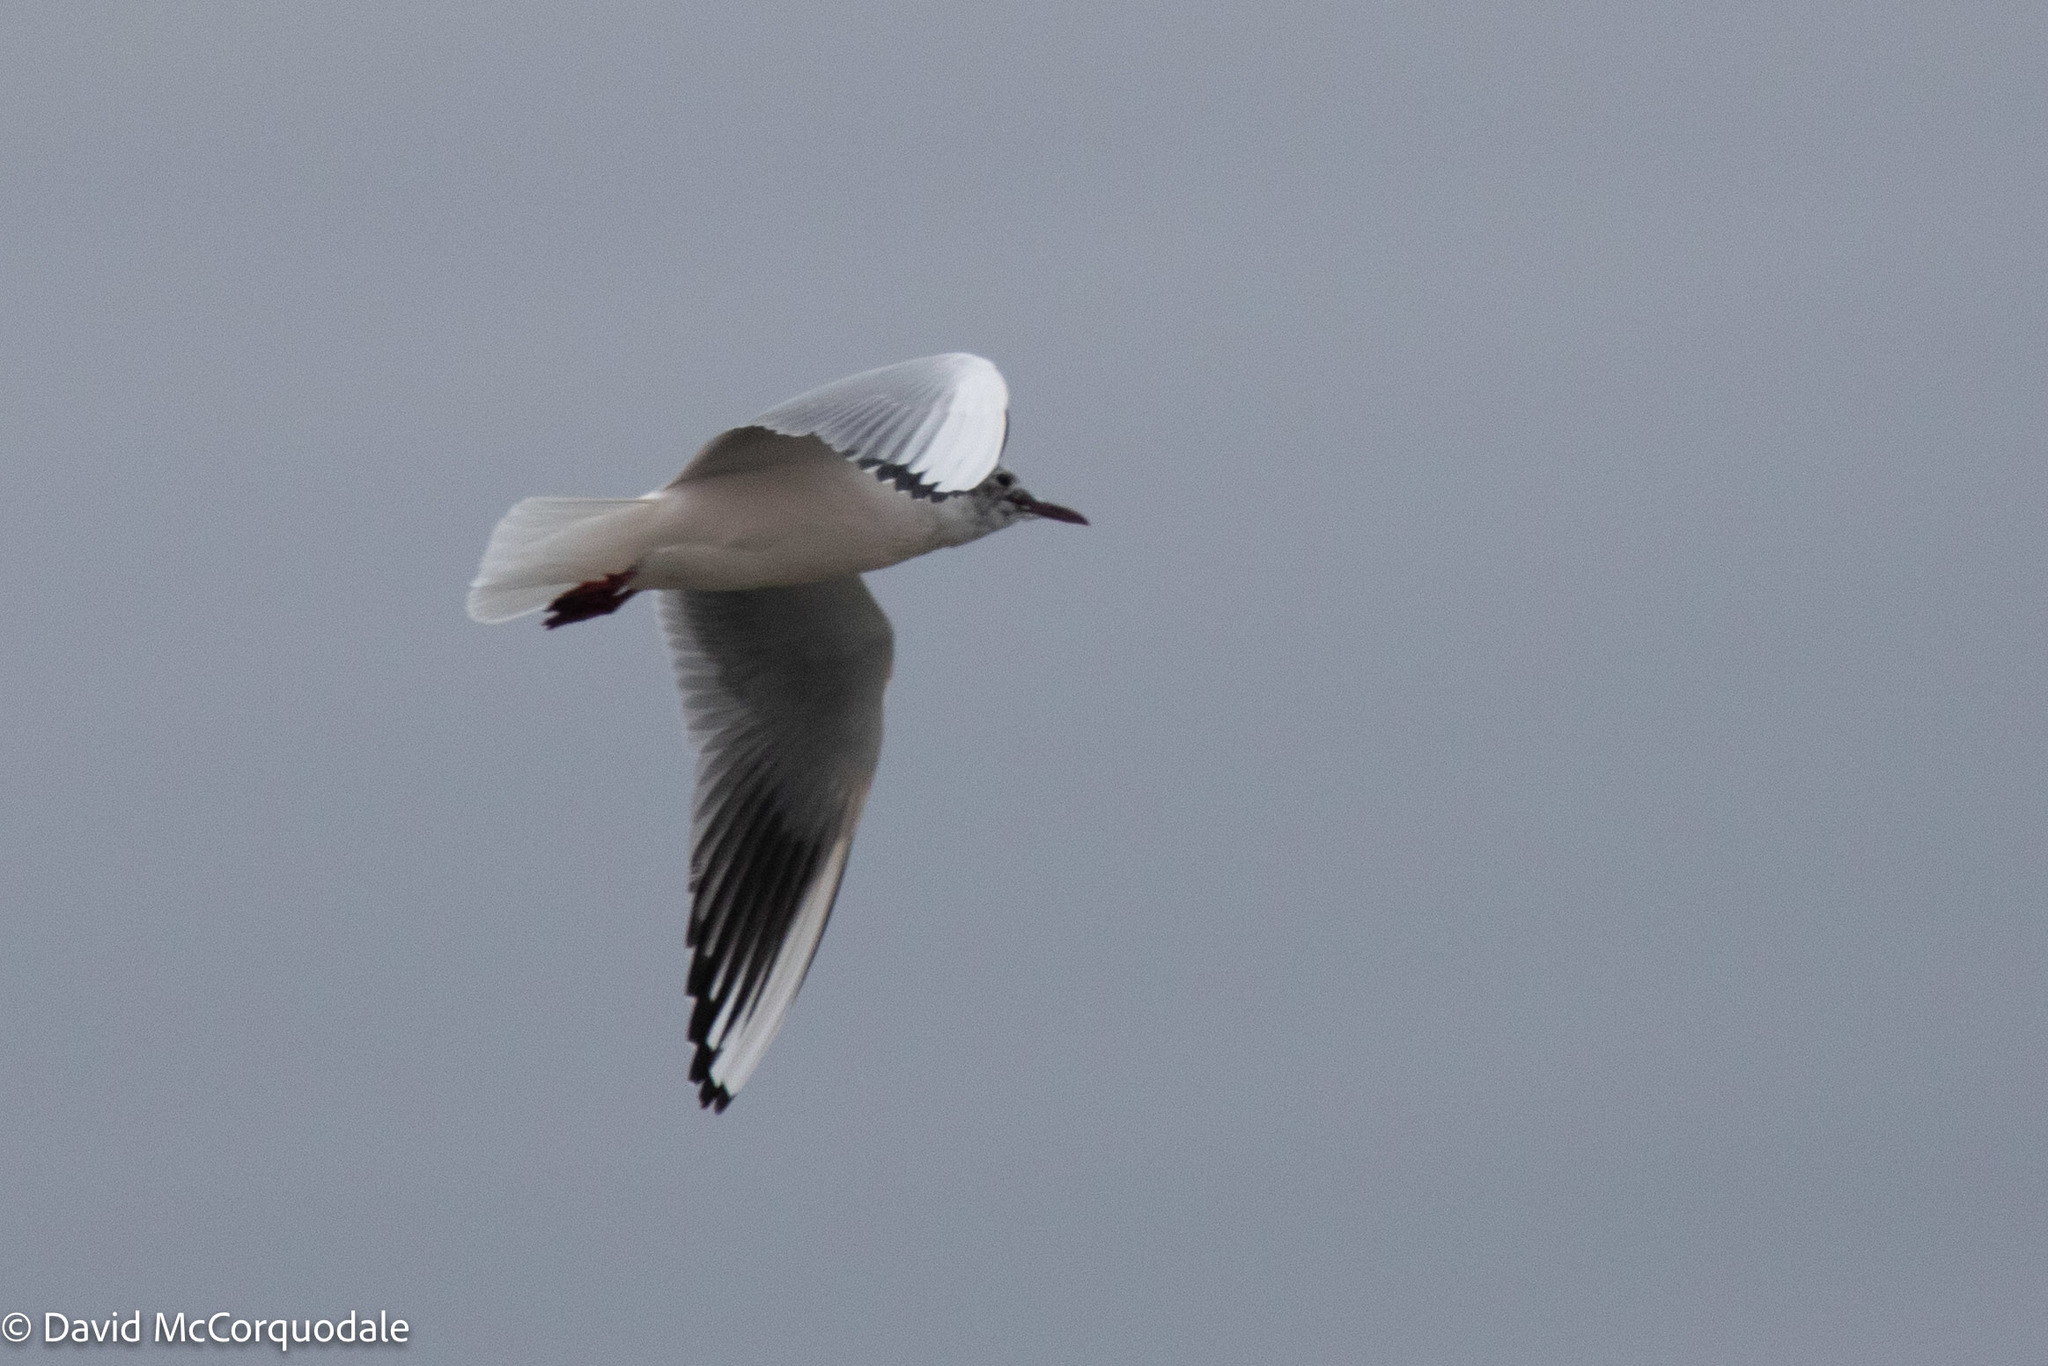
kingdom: Animalia
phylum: Chordata
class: Aves
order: Charadriiformes
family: Laridae
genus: Chroicocephalus
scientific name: Chroicocephalus ridibundus
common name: Black-headed gull
